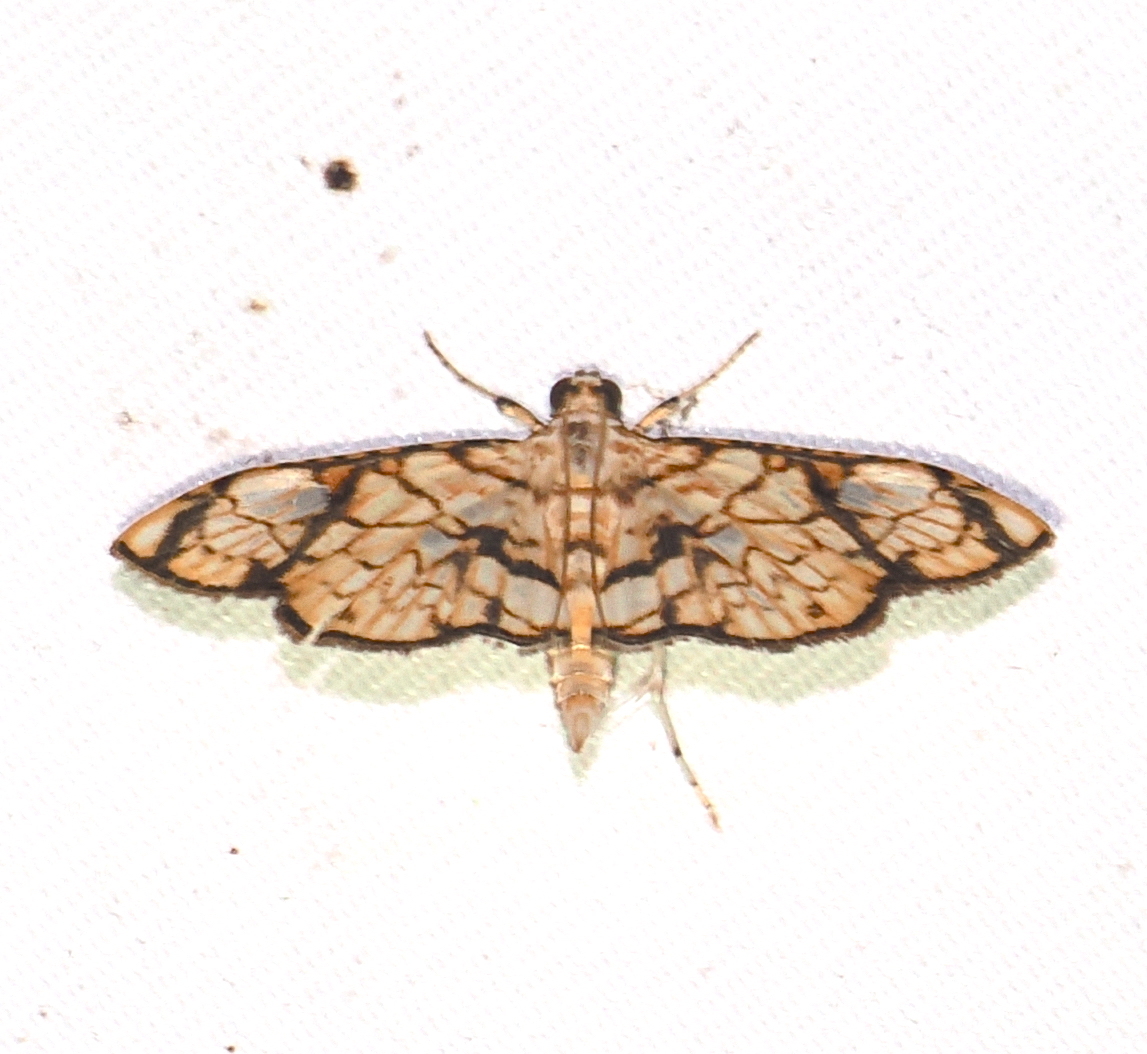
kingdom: Animalia
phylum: Arthropoda
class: Insecta
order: Lepidoptera
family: Crambidae
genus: Hileithia
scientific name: Hileithia obliqualis
